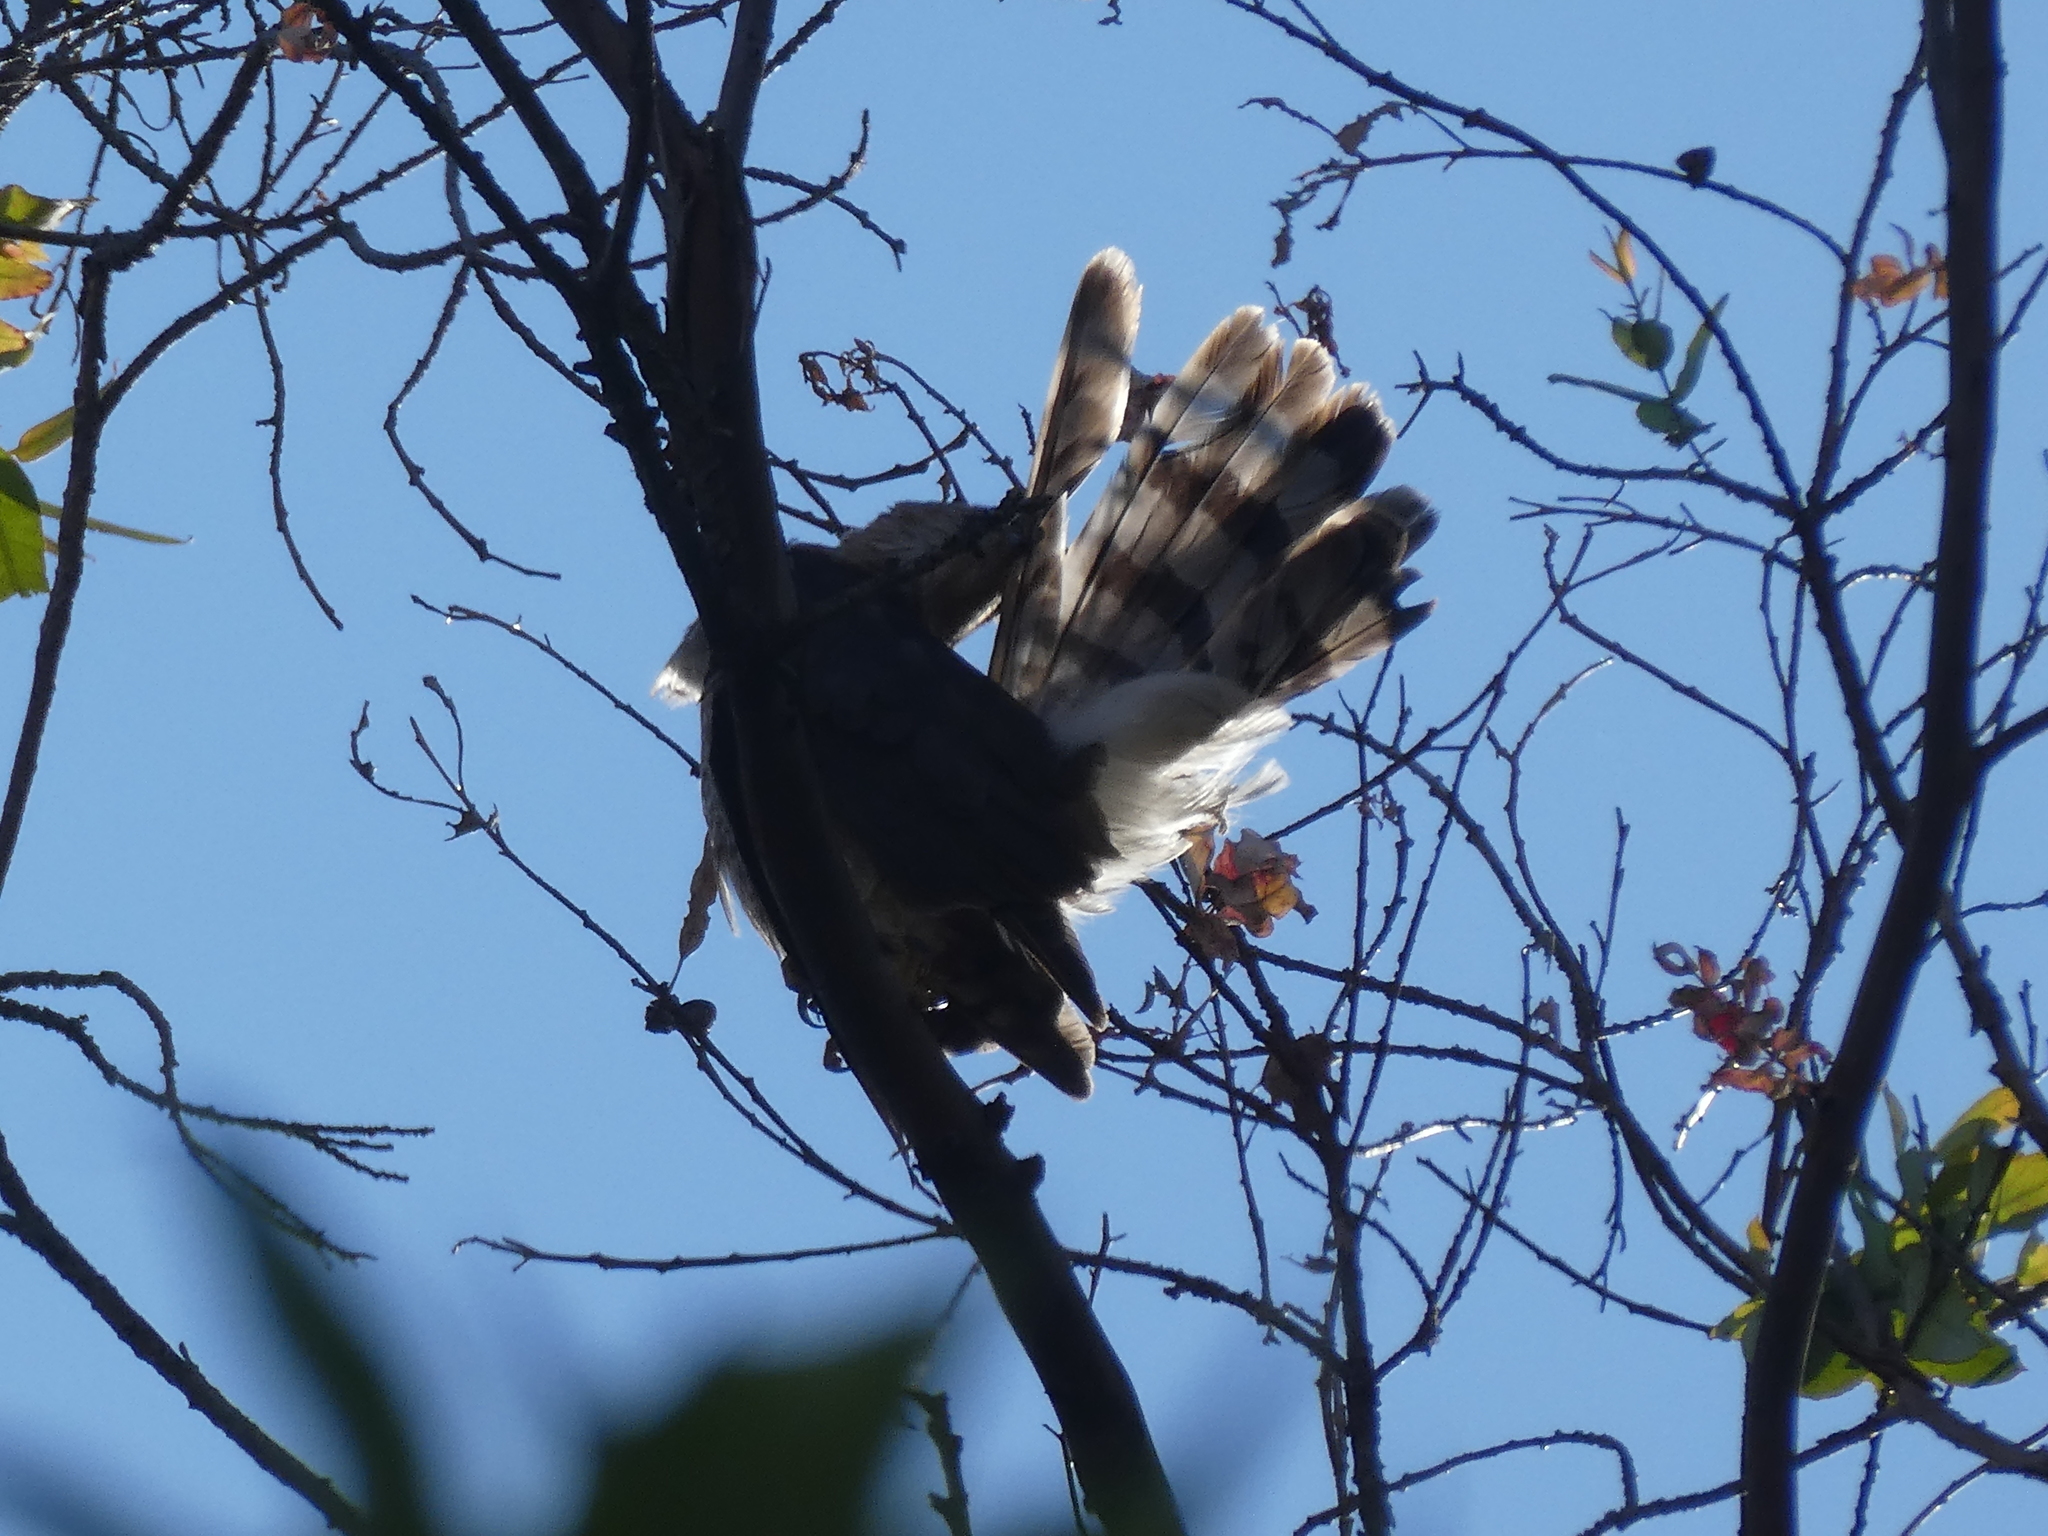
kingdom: Animalia
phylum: Chordata
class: Aves
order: Accipitriformes
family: Accipitridae
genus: Accipiter
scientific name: Accipiter cooperii
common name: Cooper's hawk
